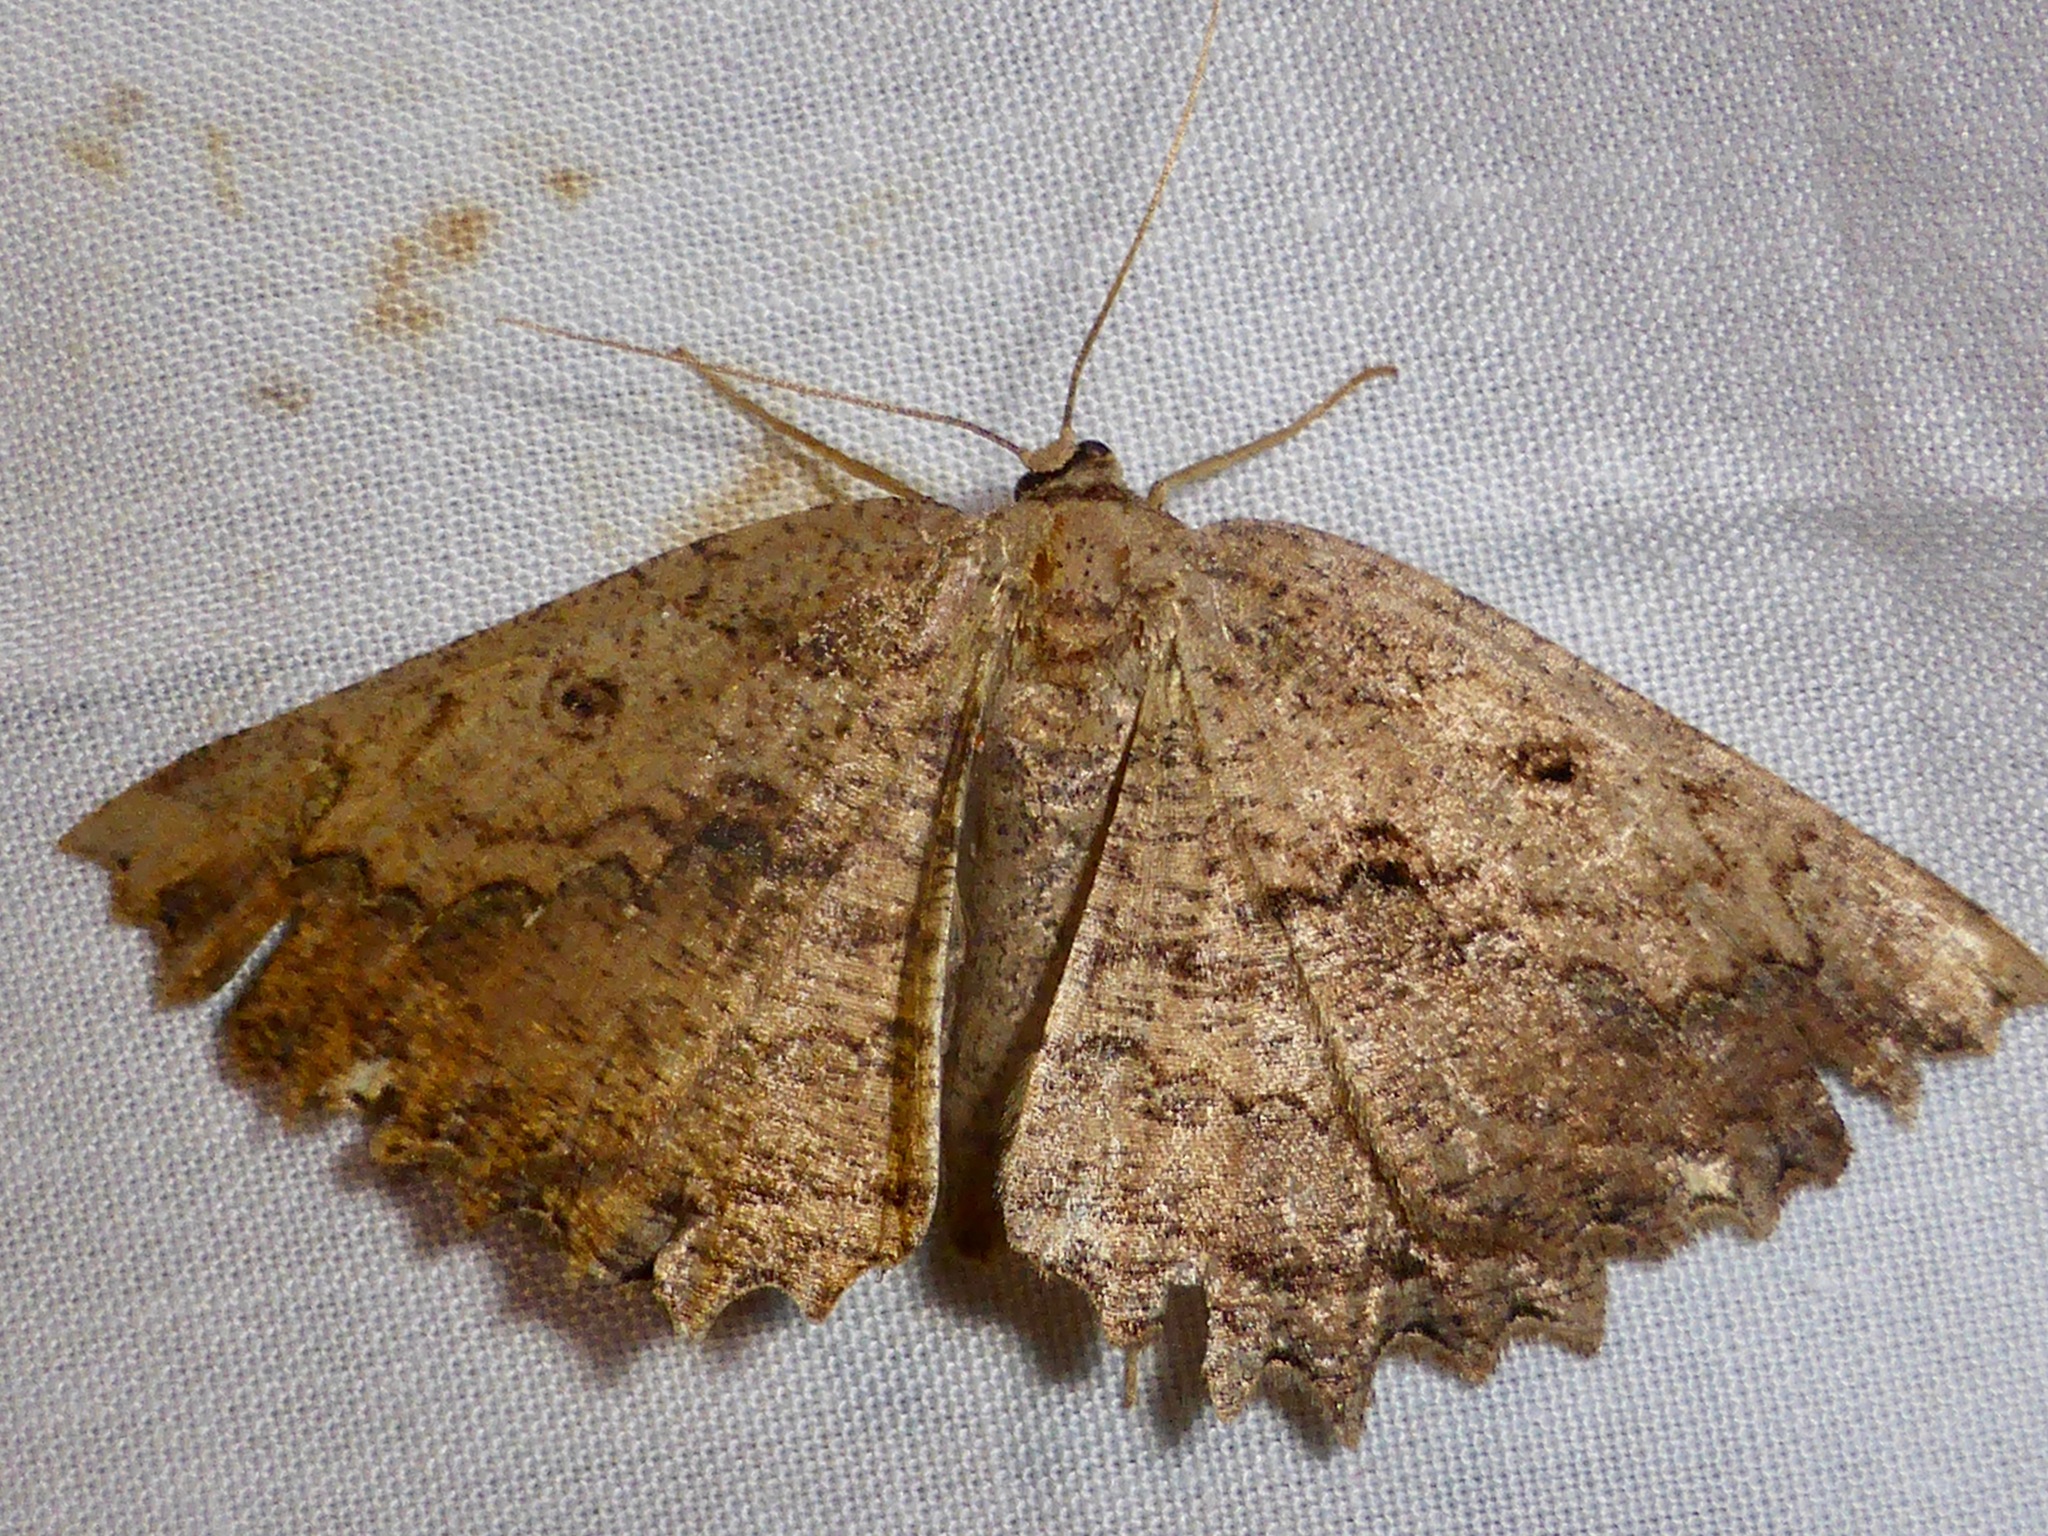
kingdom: Animalia
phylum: Arthropoda
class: Insecta
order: Lepidoptera
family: Geometridae
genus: Gellonia
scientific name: Gellonia pannularia
